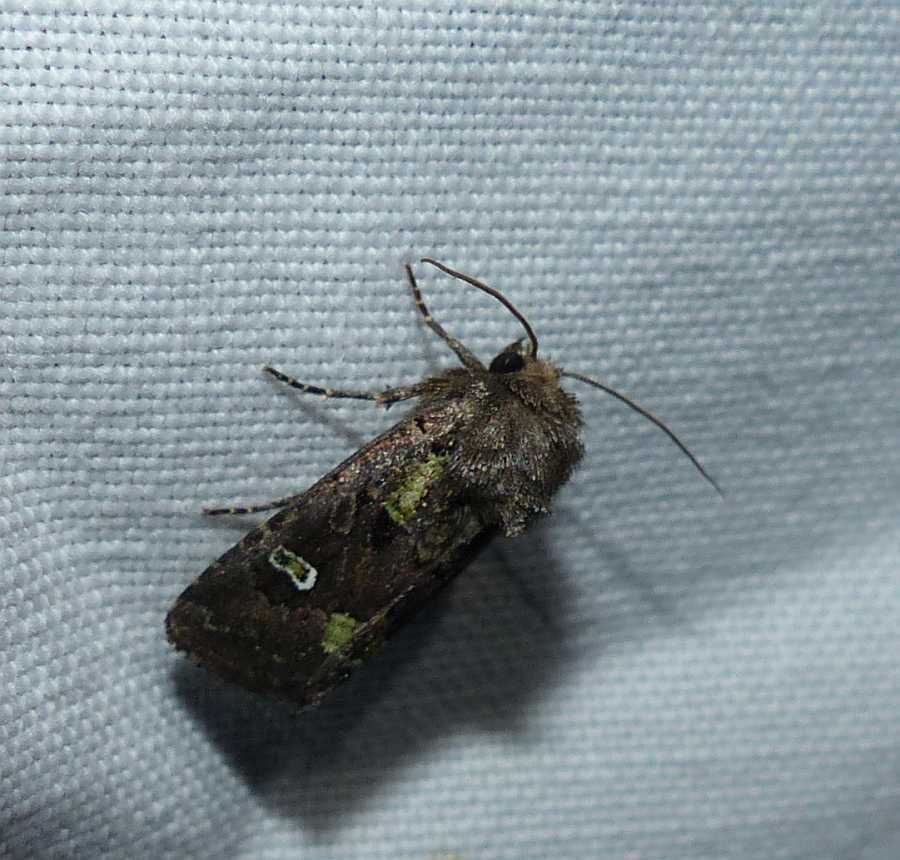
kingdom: Animalia
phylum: Arthropoda
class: Insecta
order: Lepidoptera
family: Noctuidae
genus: Lacinipolia
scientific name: Lacinipolia renigera
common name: Kidney-spotted minor
